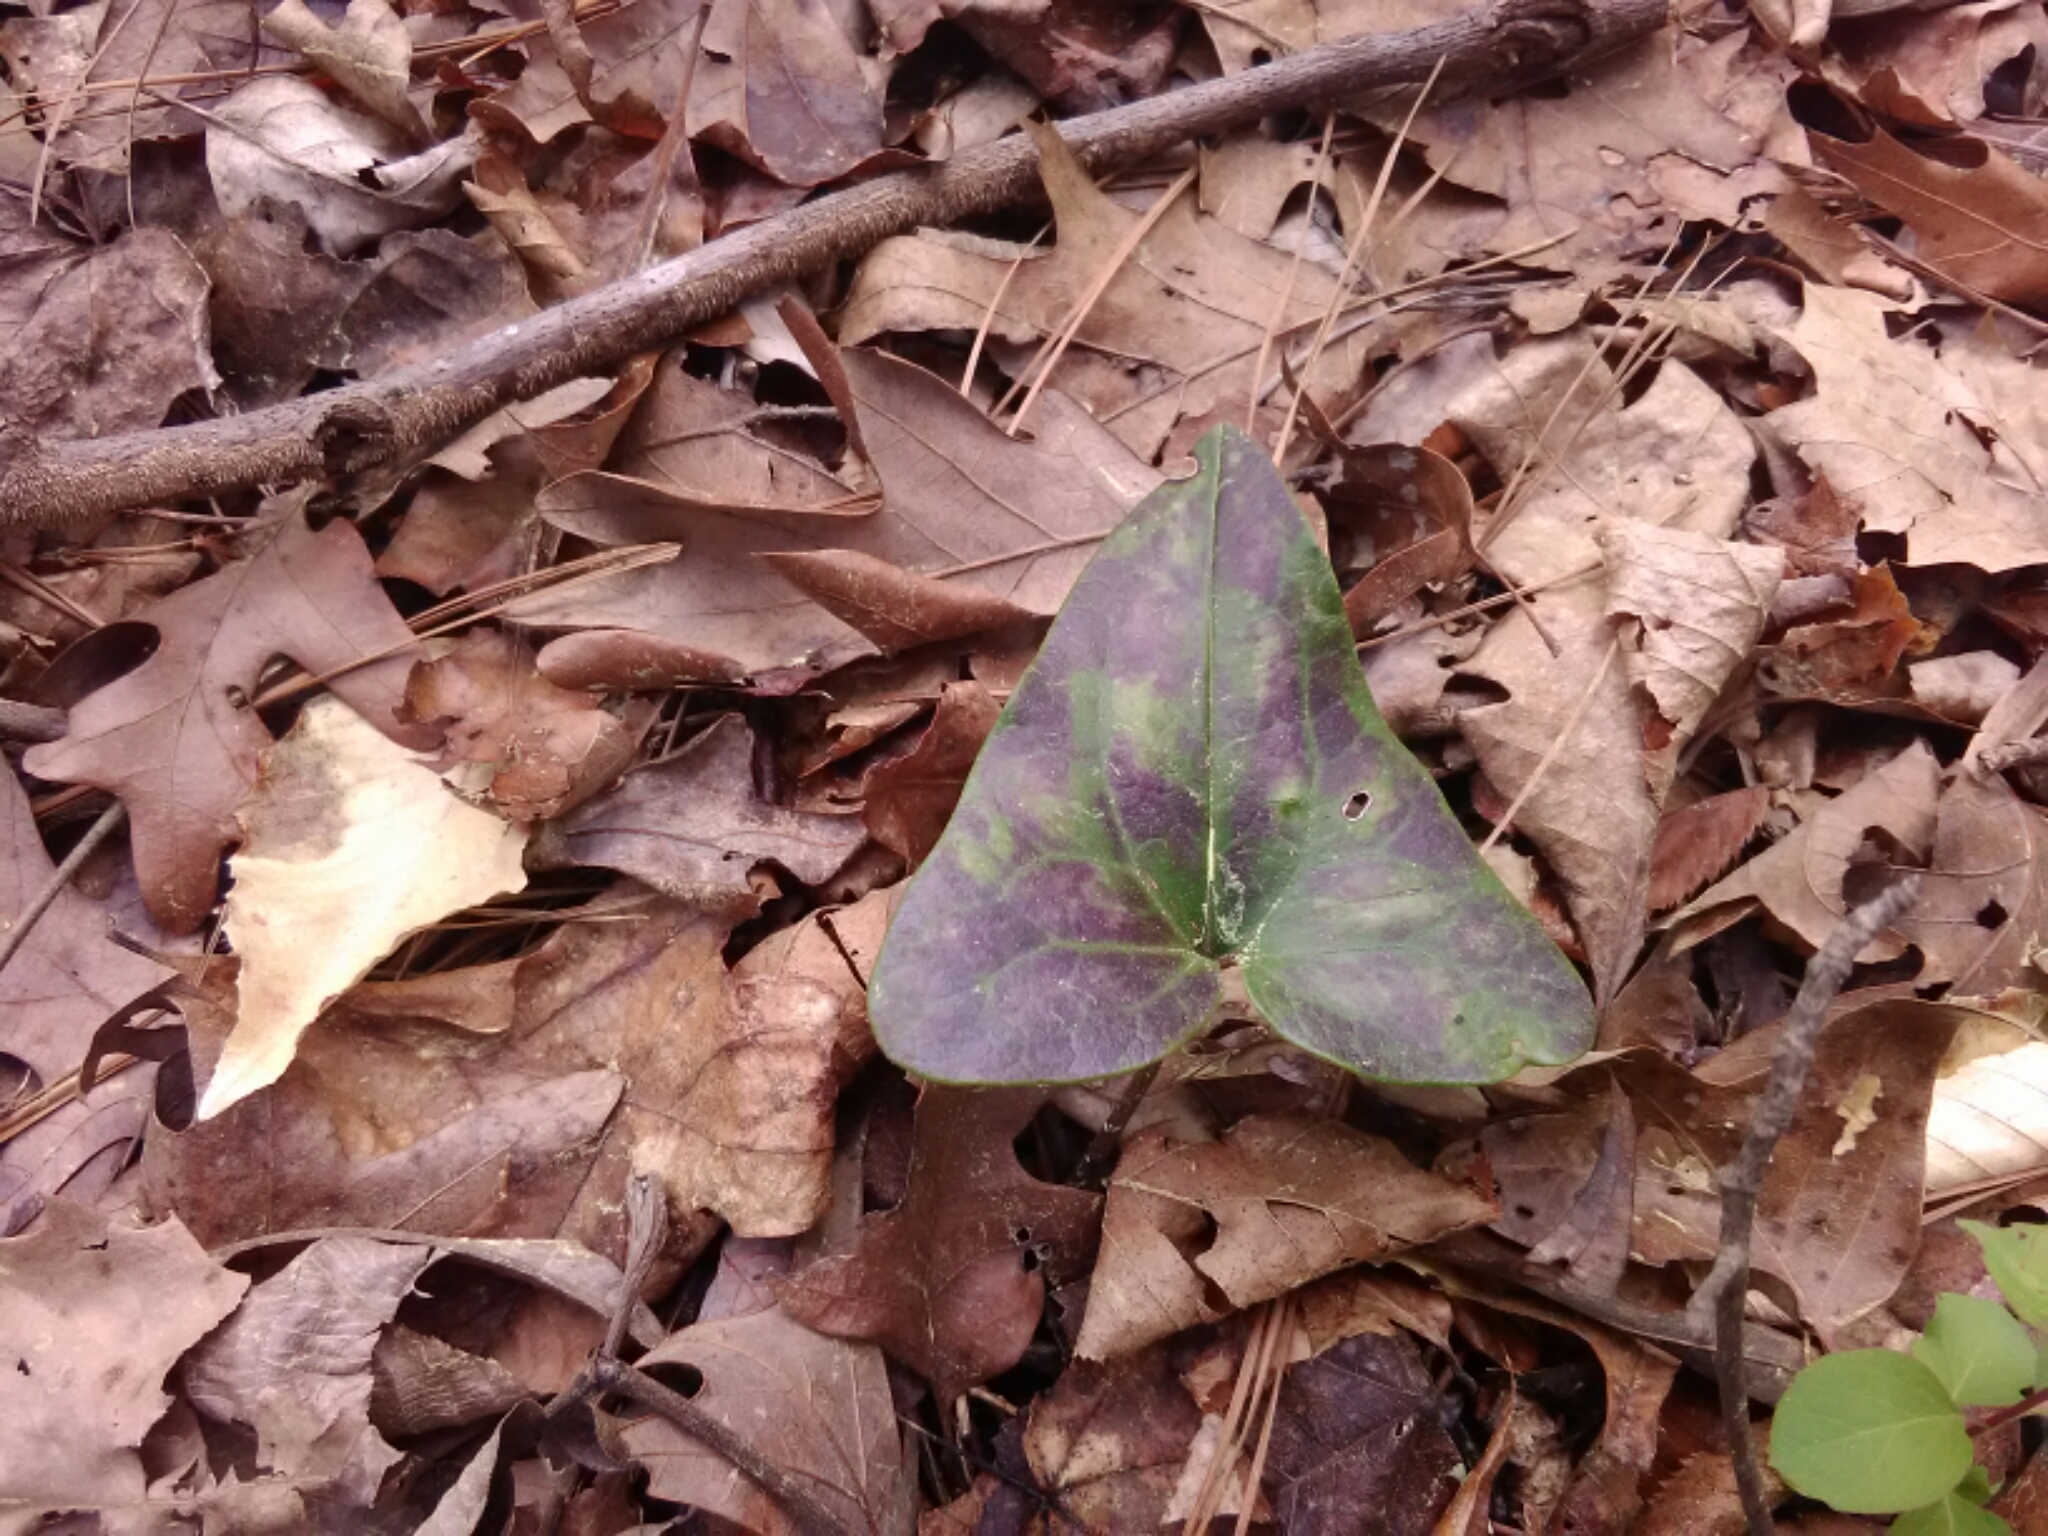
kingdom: Plantae
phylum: Tracheophyta
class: Magnoliopsida
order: Piperales
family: Aristolochiaceae
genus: Hexastylis
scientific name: Hexastylis arifolia
